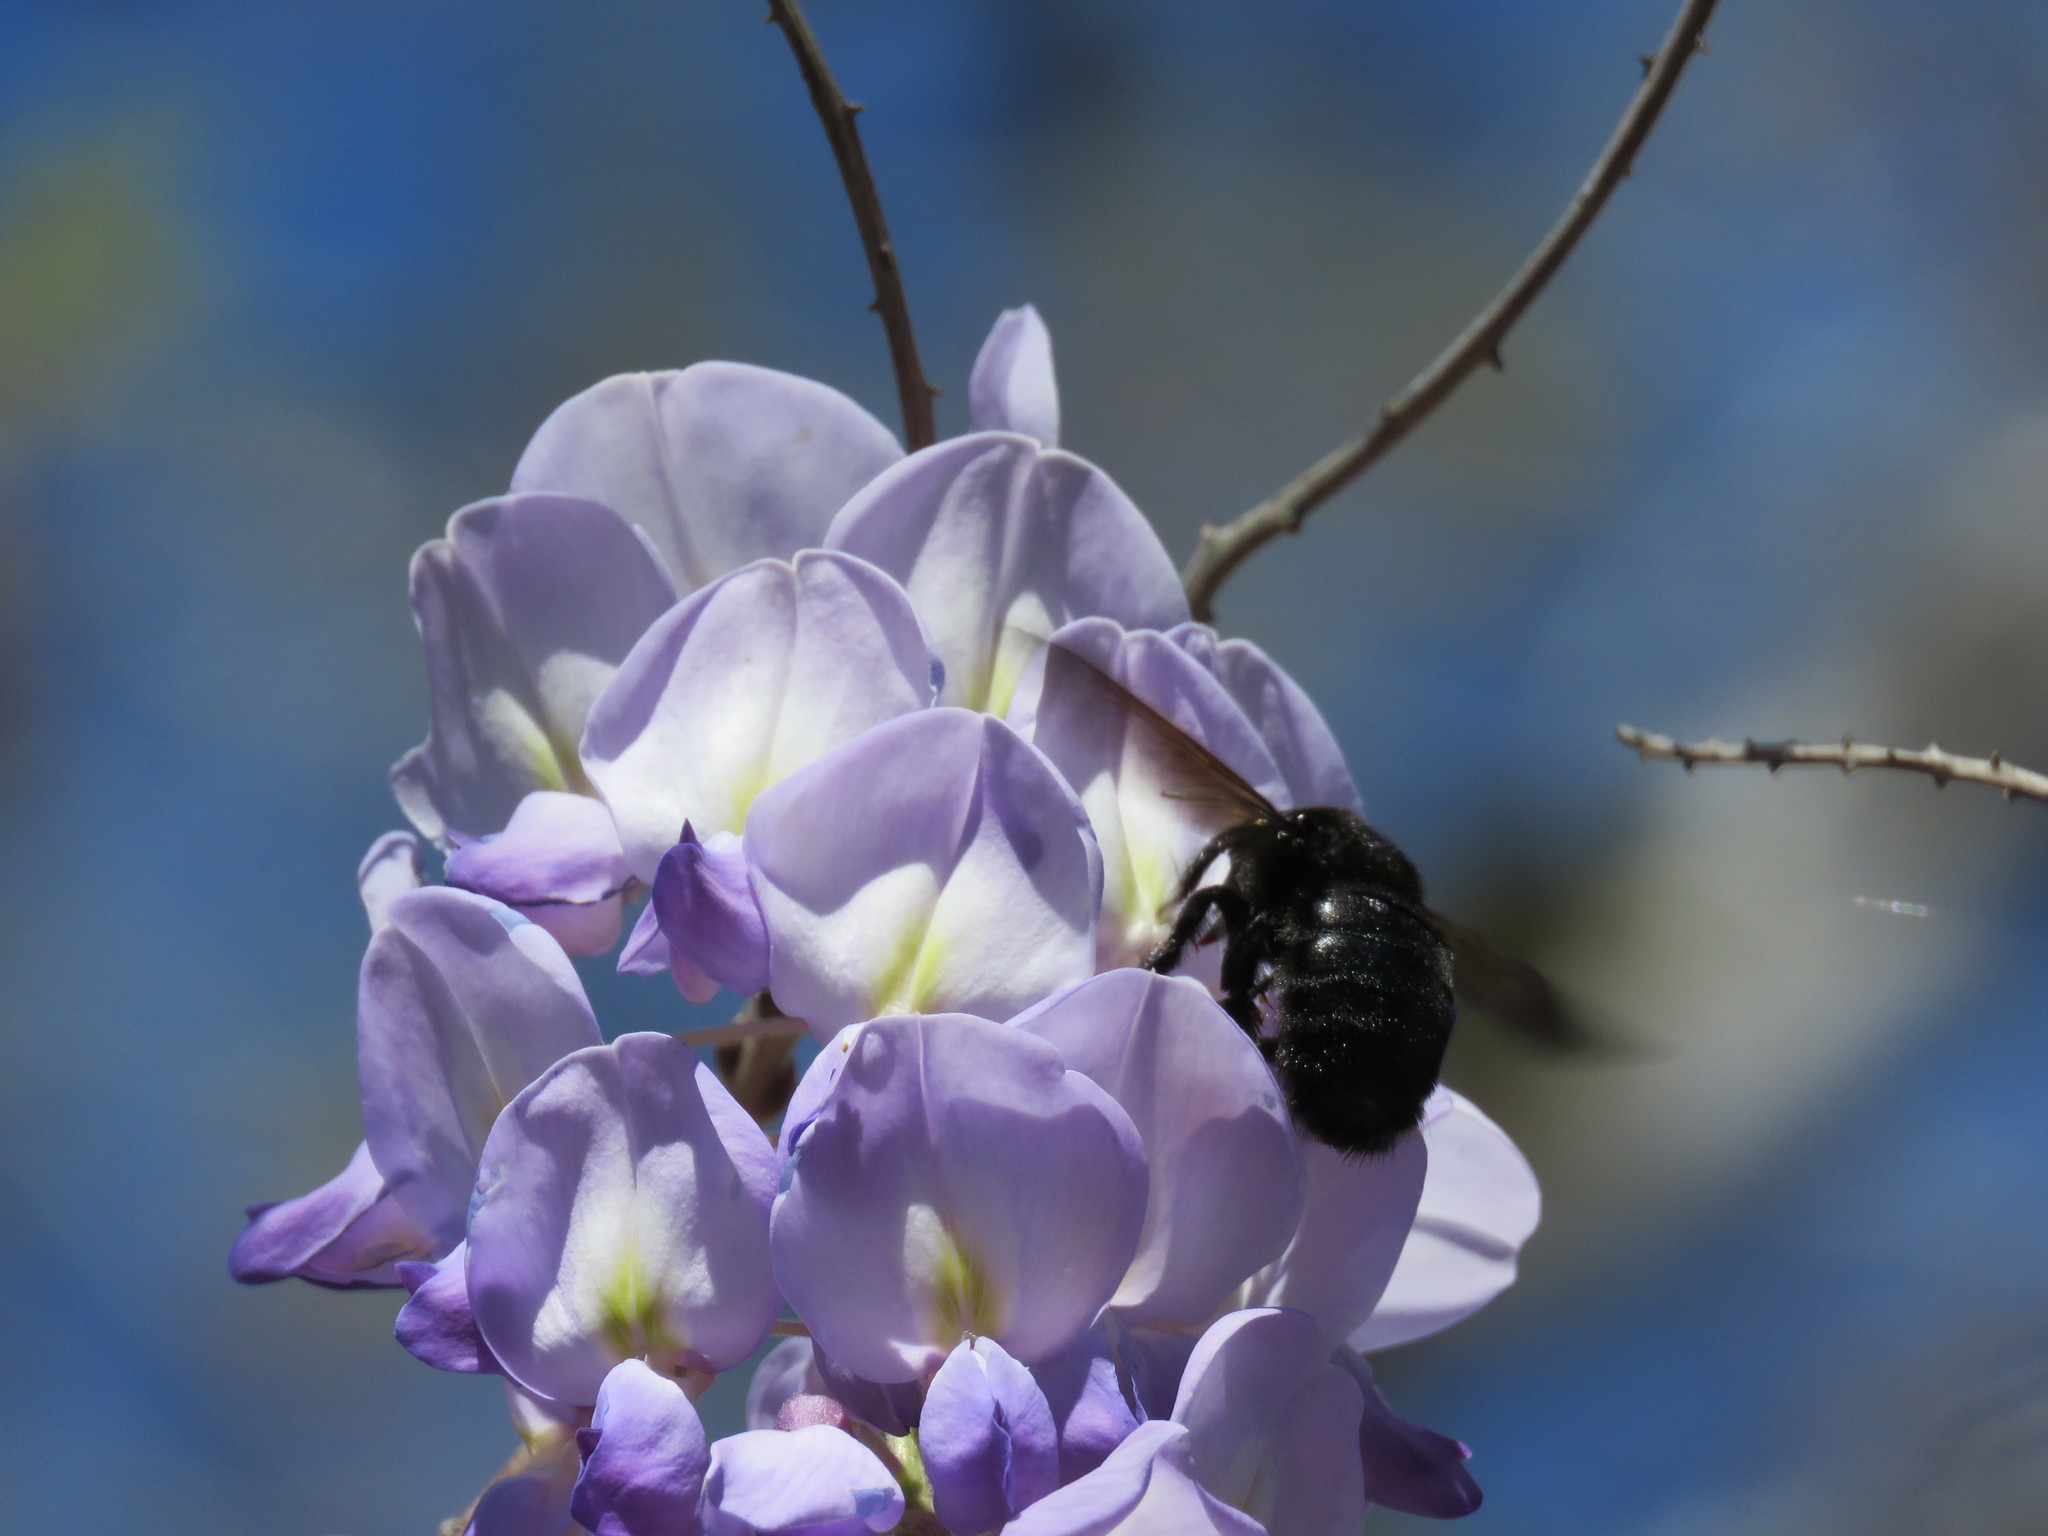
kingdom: Animalia
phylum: Arthropoda
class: Insecta
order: Hymenoptera
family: Apidae
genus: Xylocopa
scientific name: Xylocopa sonorina
